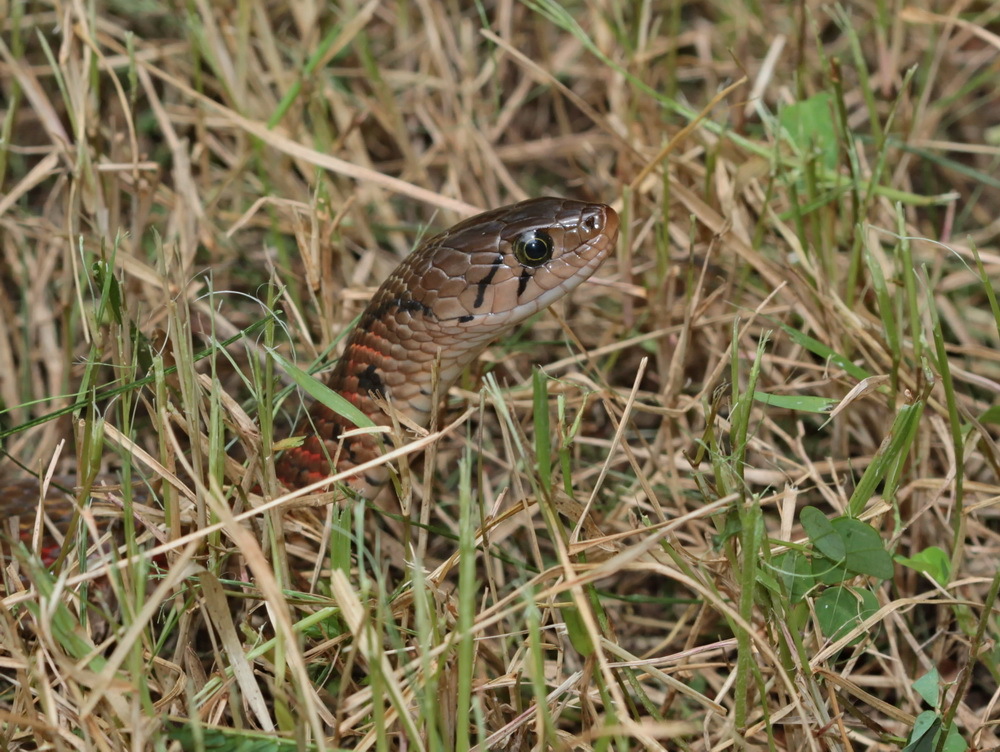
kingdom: Animalia
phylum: Chordata
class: Squamata
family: Colubridae
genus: Fowlea
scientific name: Fowlea flavipunctatus
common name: Yellow-spotted keelback
